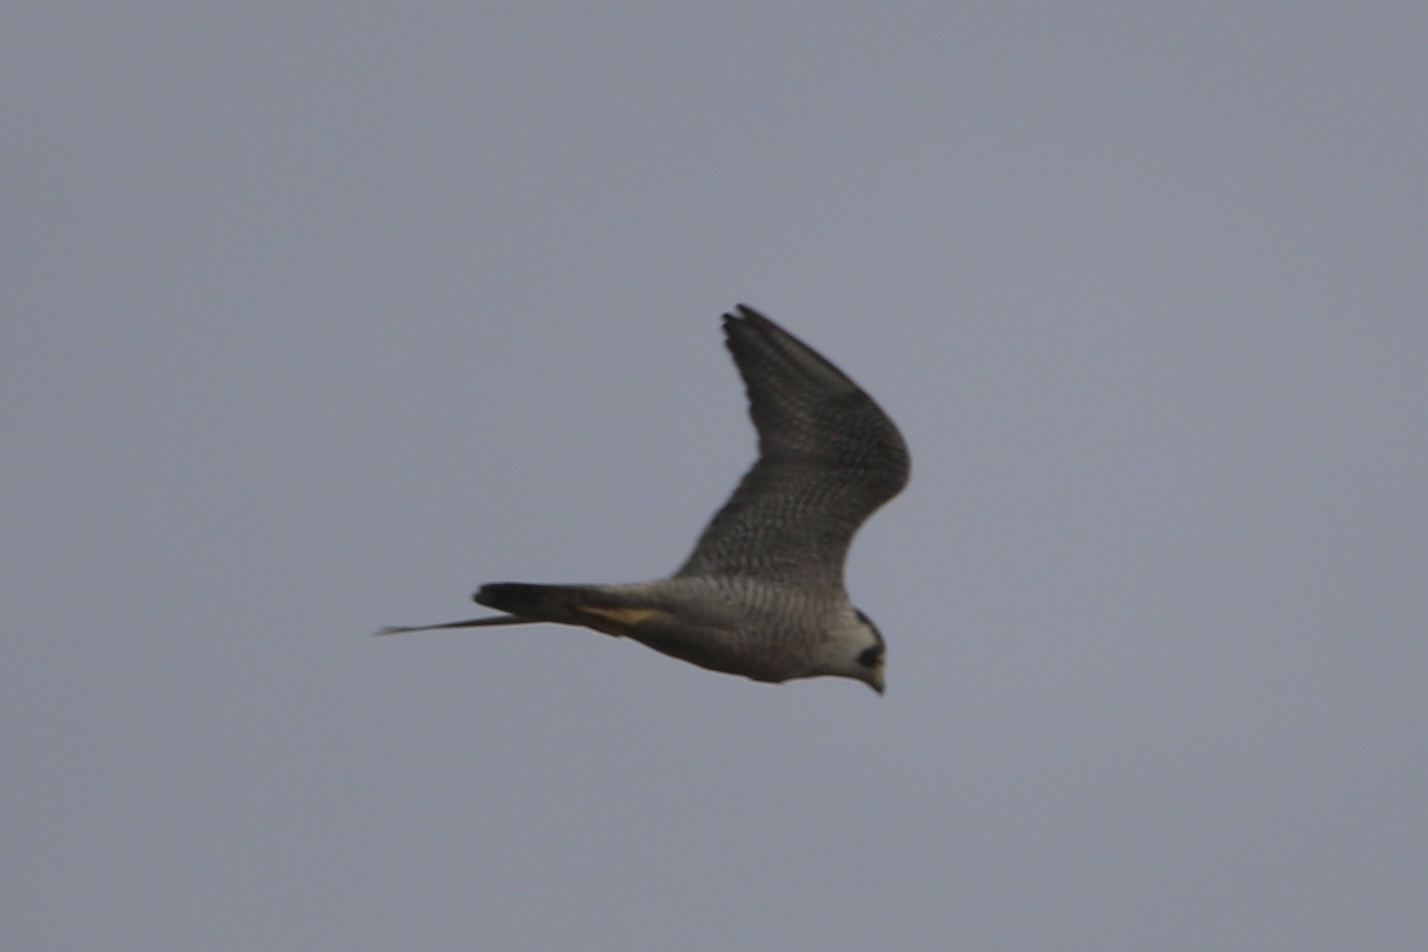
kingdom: Animalia
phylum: Chordata
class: Aves
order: Falconiformes
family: Falconidae
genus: Falco
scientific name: Falco peregrinus
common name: Peregrine falcon
